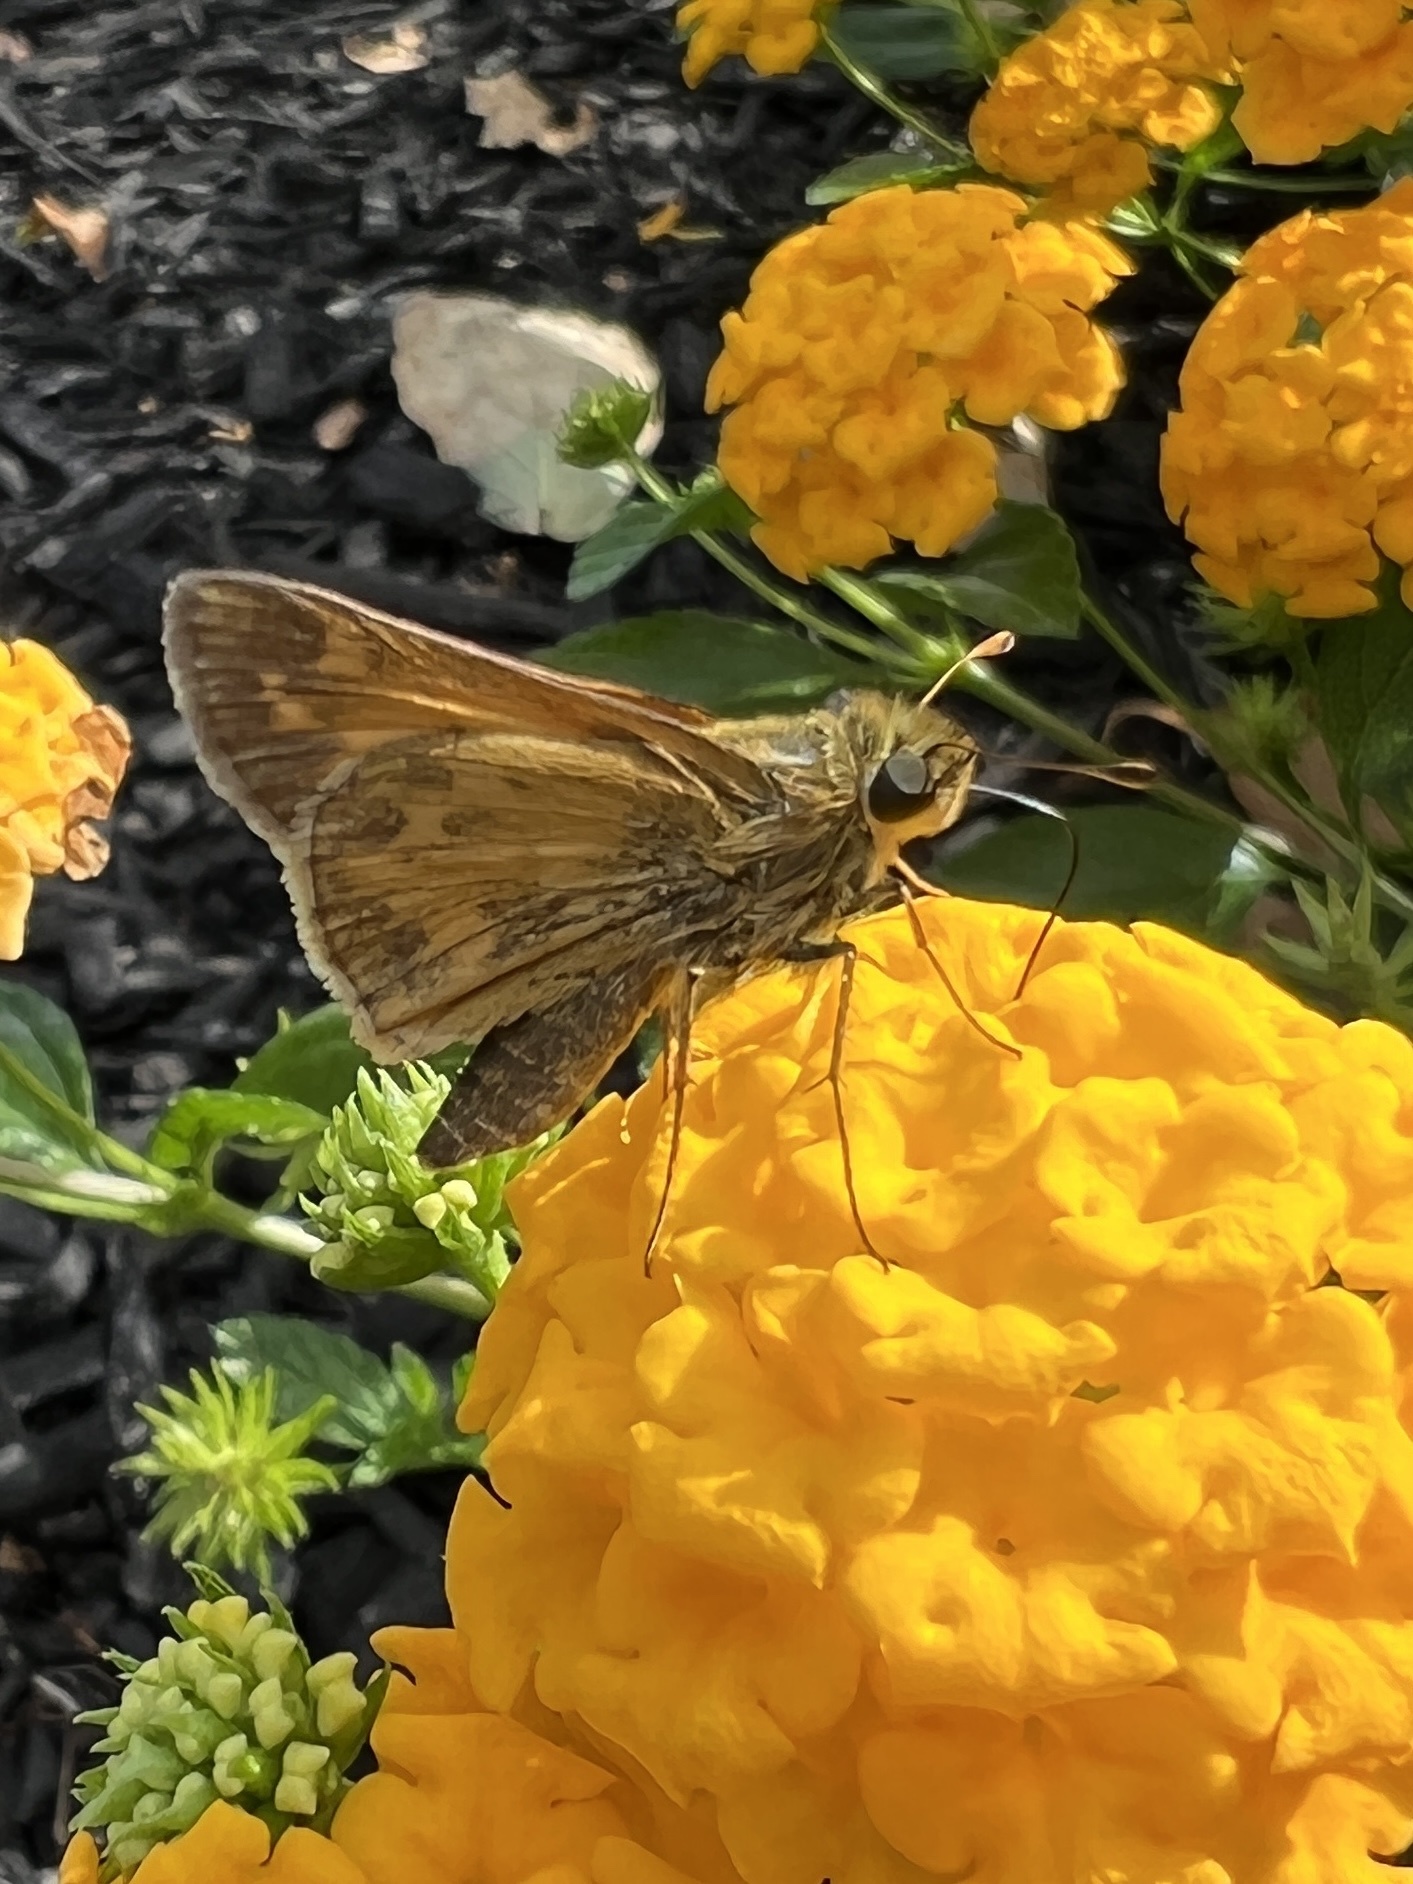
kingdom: Animalia
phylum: Arthropoda
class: Insecta
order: Lepidoptera
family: Hesperiidae
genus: Atalopedes
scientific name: Atalopedes
